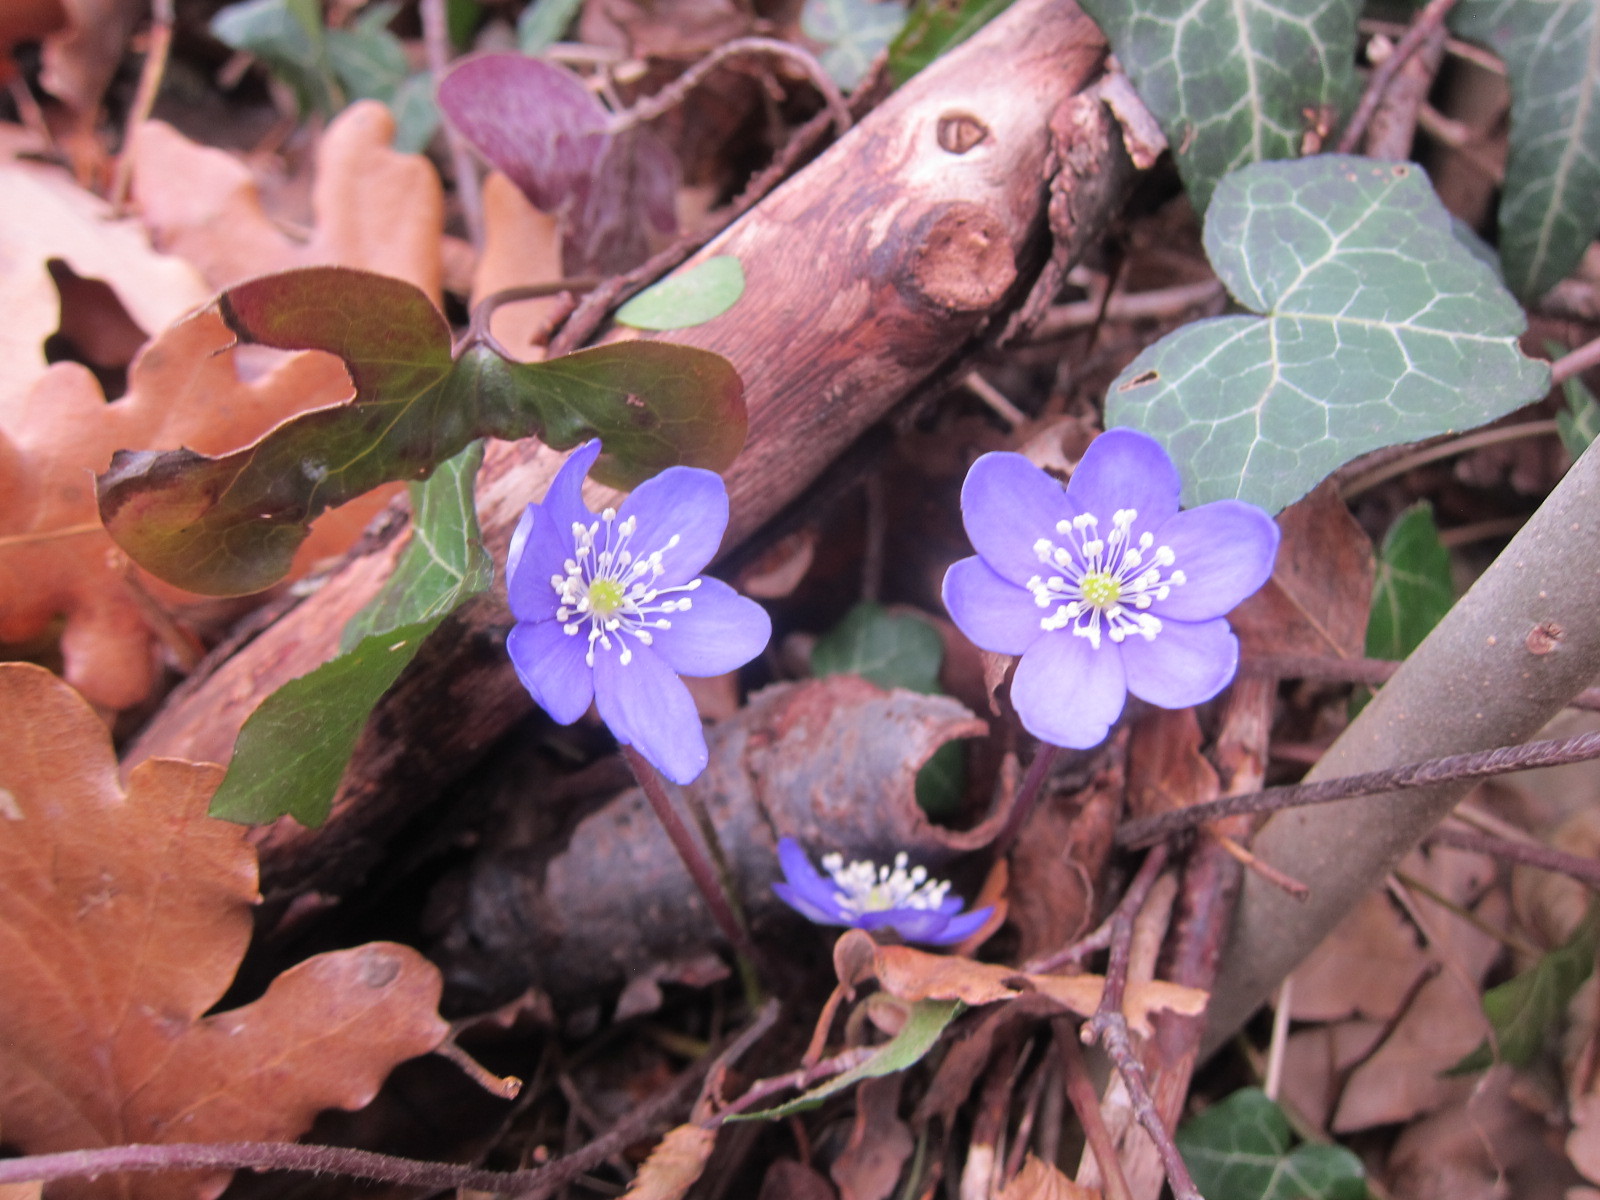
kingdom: Plantae
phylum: Tracheophyta
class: Magnoliopsida
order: Ranunculales
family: Ranunculaceae
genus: Hepatica
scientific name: Hepatica nobilis
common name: Liverleaf
